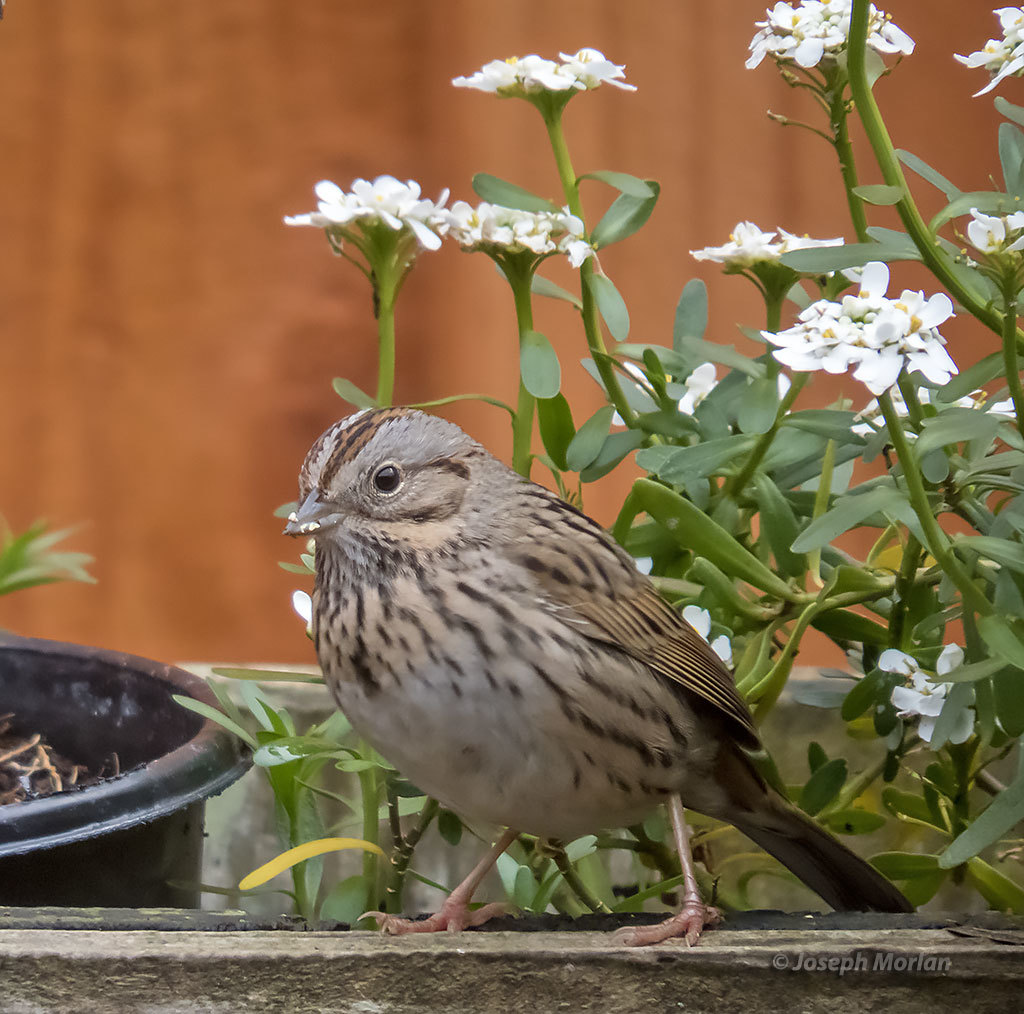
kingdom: Animalia
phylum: Chordata
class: Aves
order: Passeriformes
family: Passerellidae
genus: Melospiza
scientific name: Melospiza lincolnii
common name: Lincoln's sparrow
